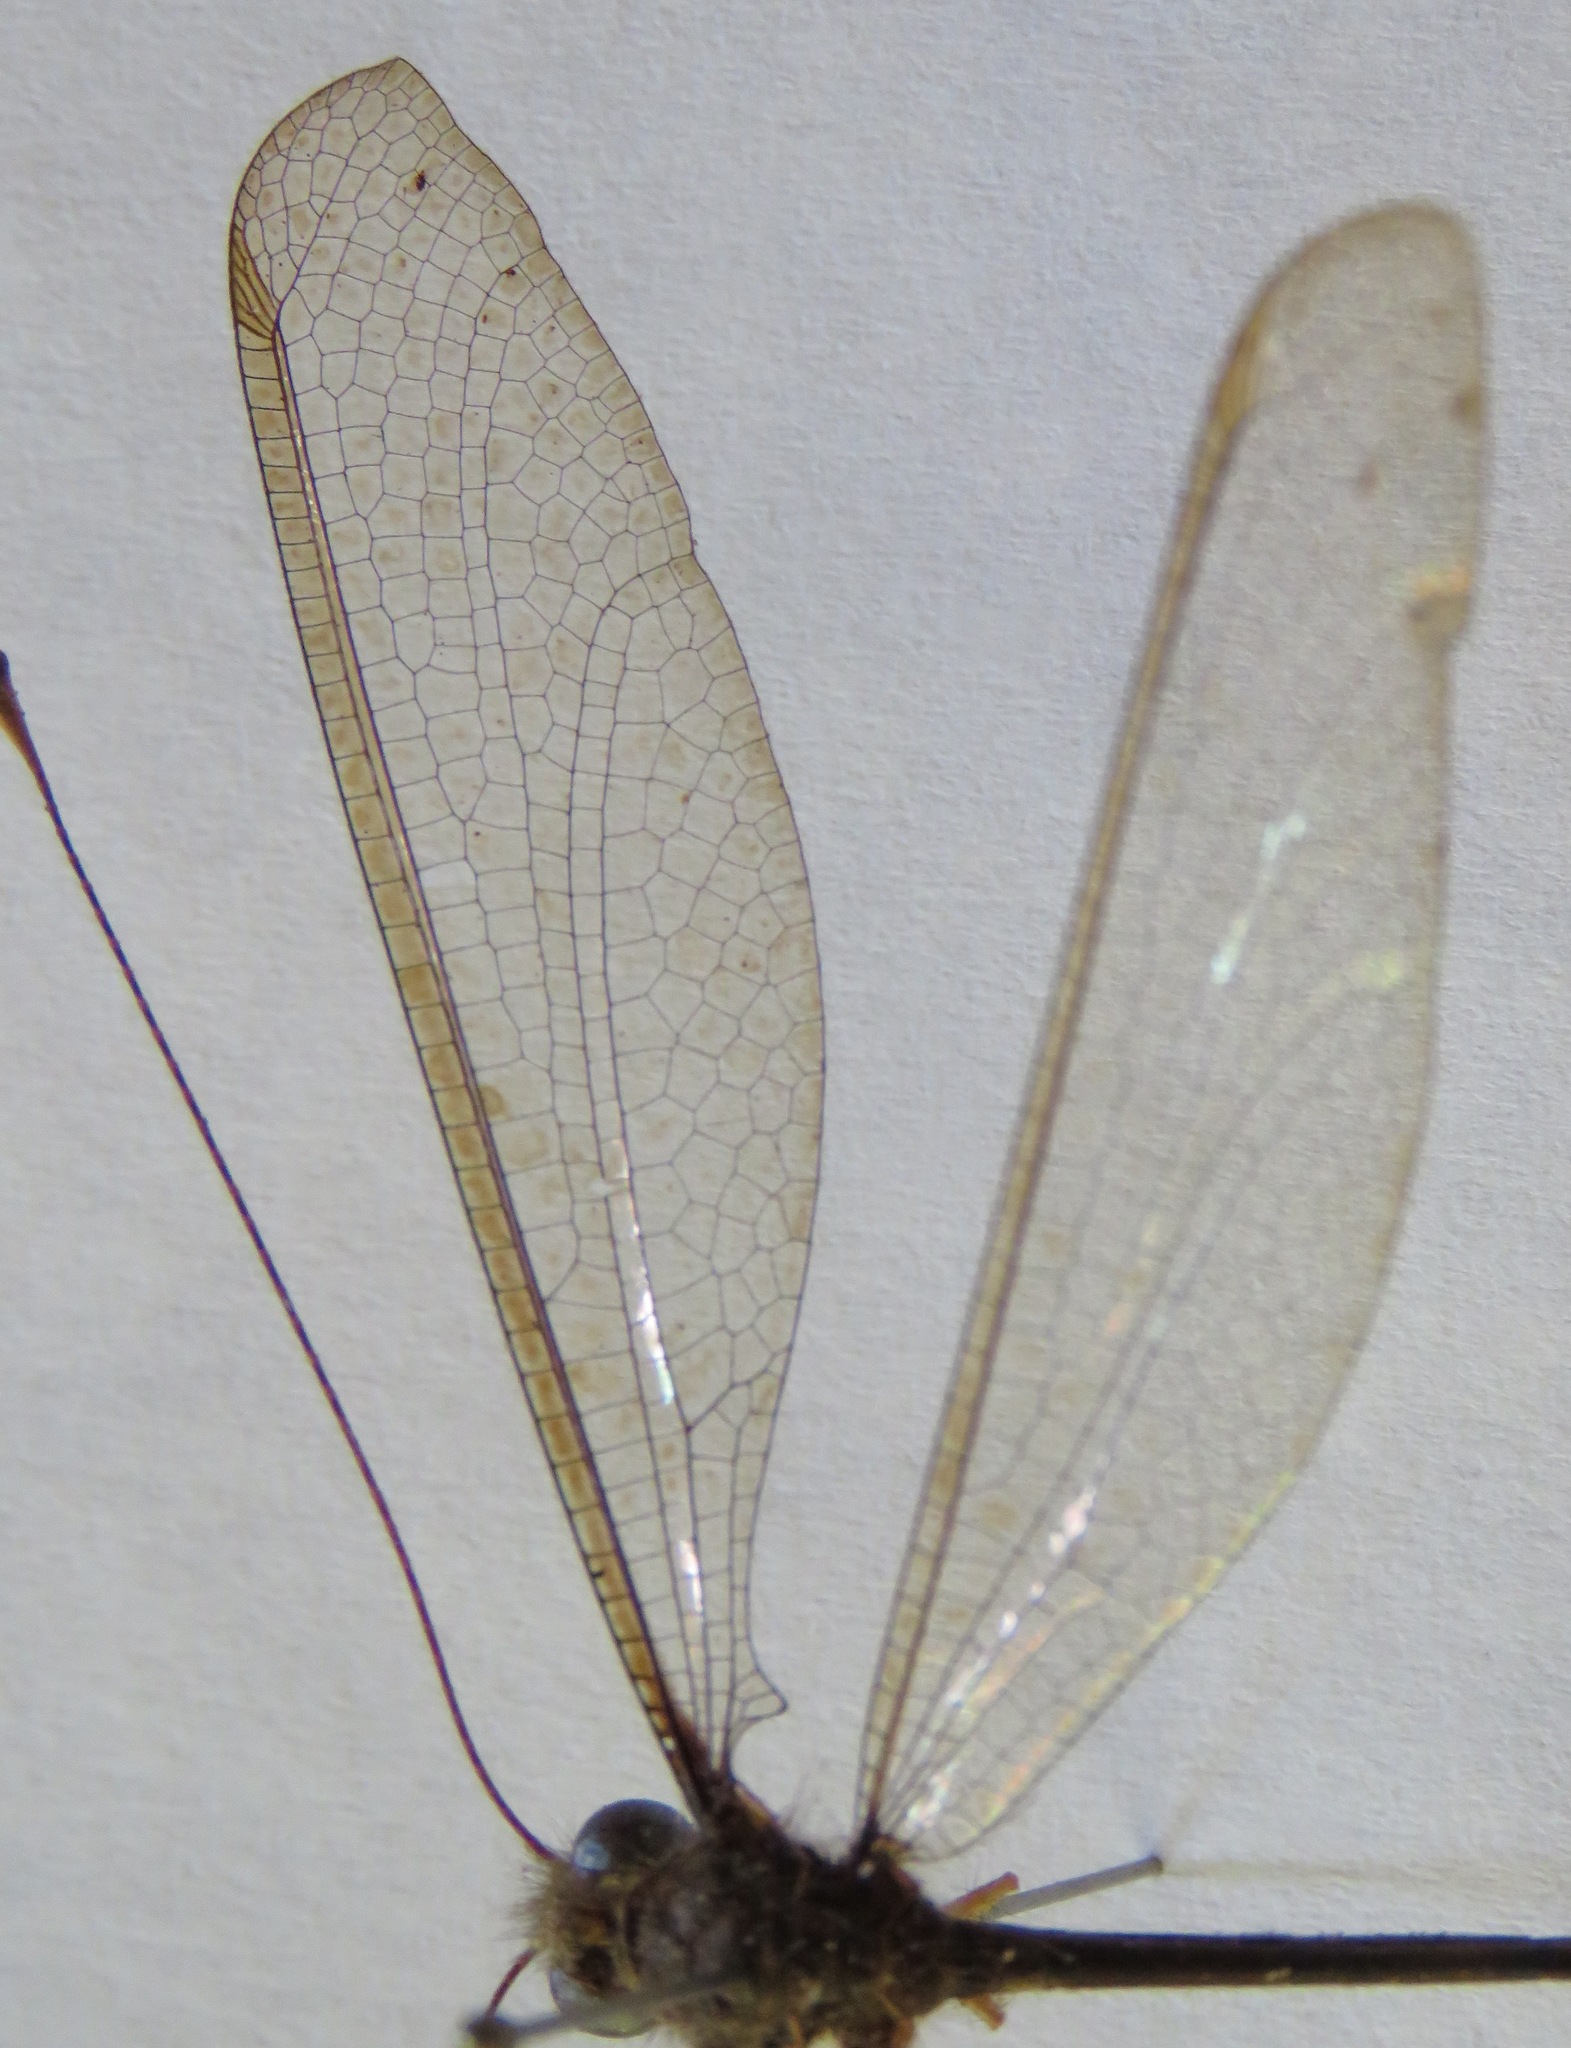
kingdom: Animalia
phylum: Arthropoda
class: Insecta
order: Neuroptera
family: Ascalaphidae
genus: Haploglenius
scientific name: Haploglenius flavicornis
